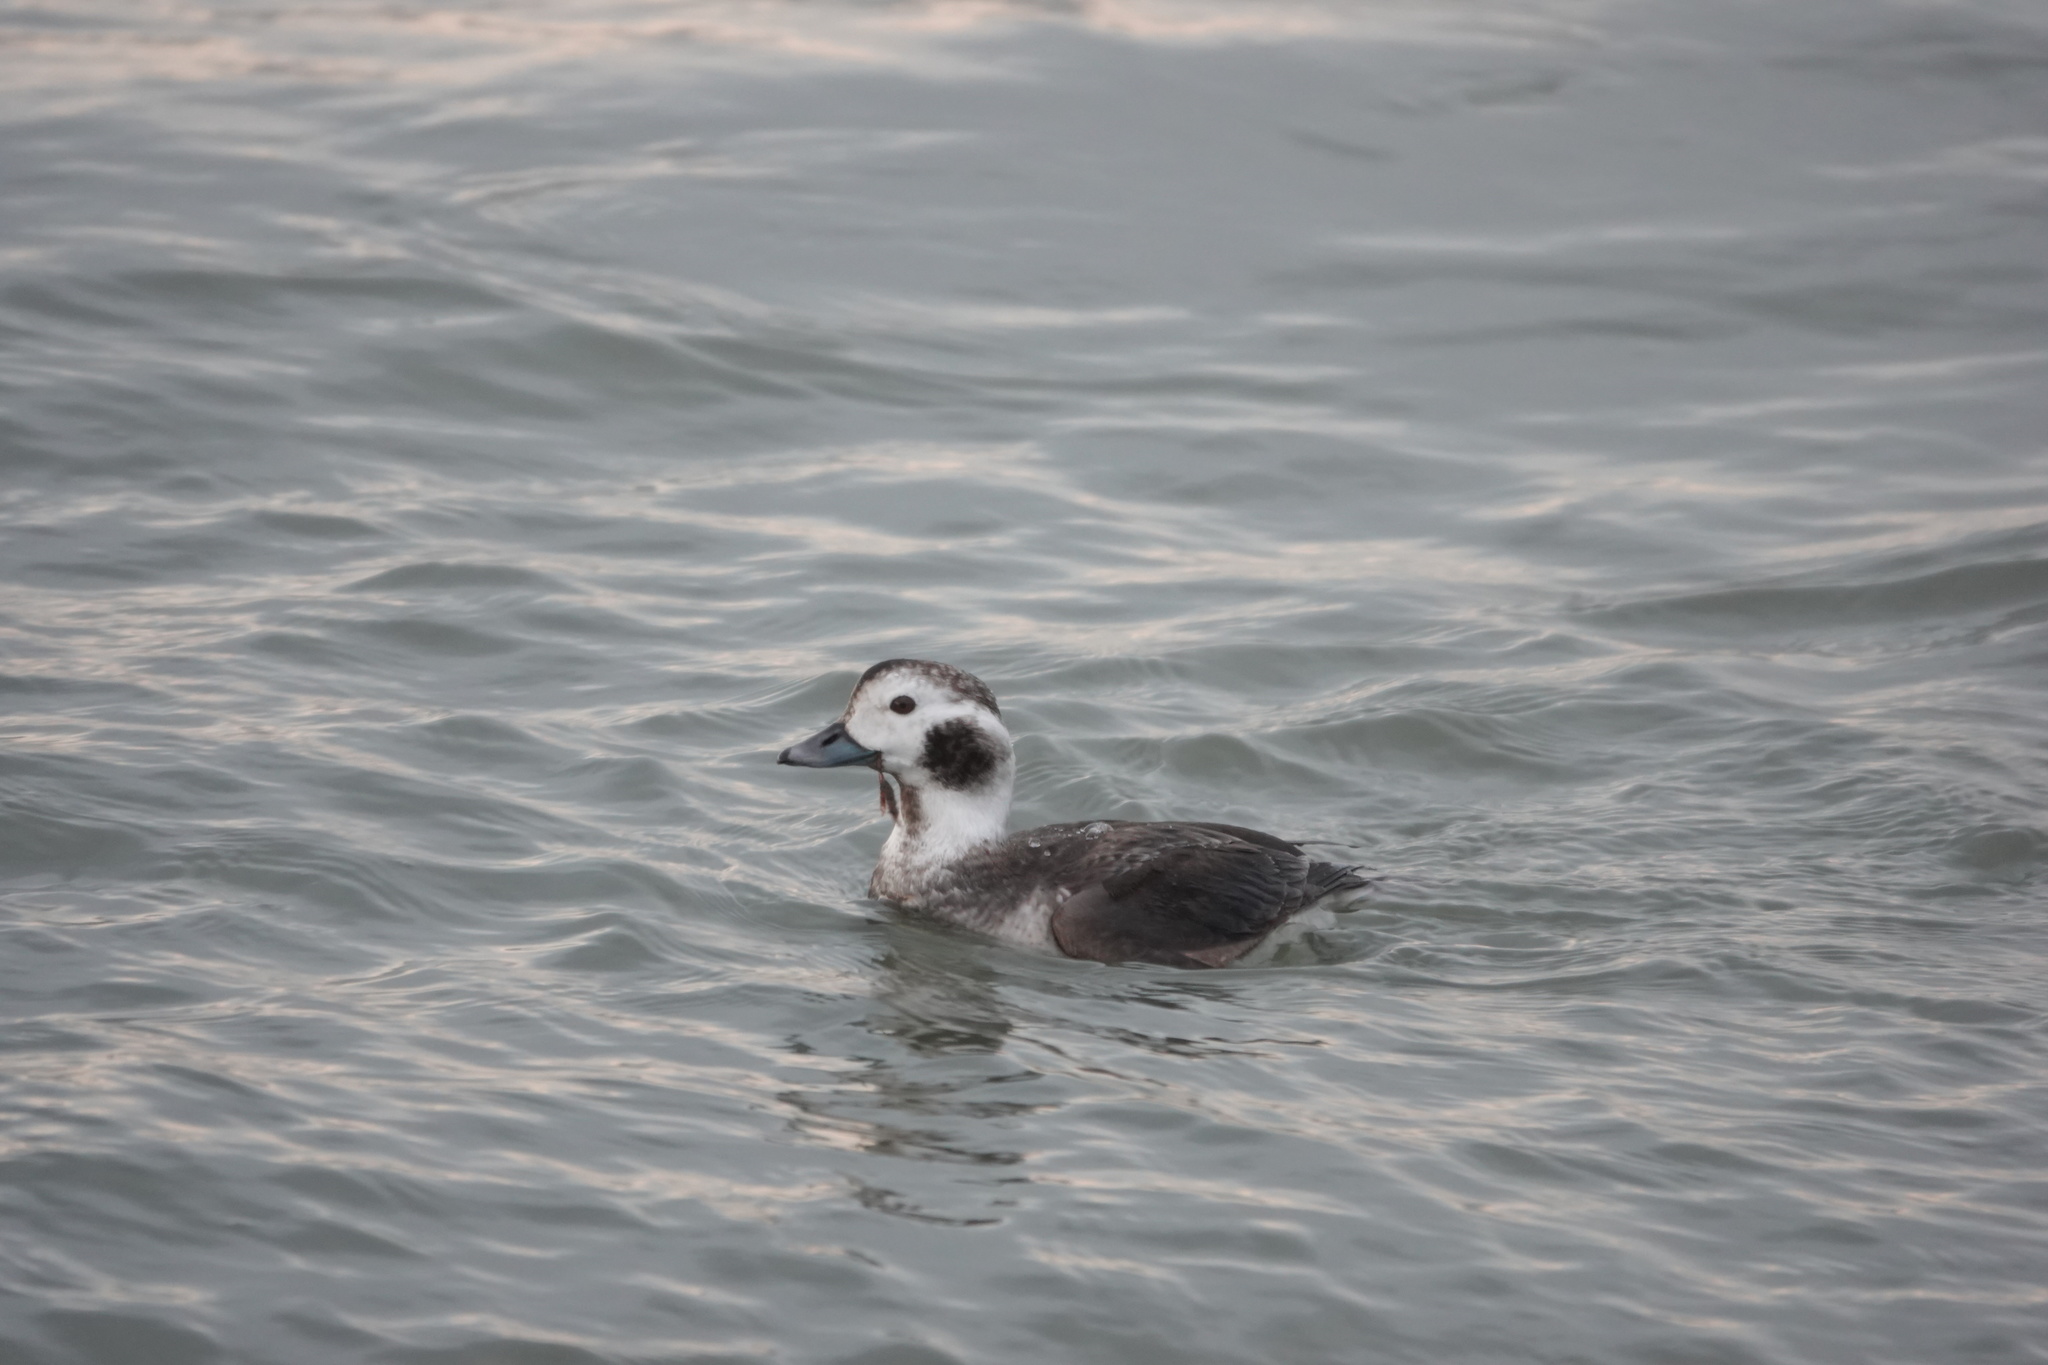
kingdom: Animalia
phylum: Chordata
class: Aves
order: Anseriformes
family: Anatidae
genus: Clangula
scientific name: Clangula hyemalis
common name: Long-tailed duck
